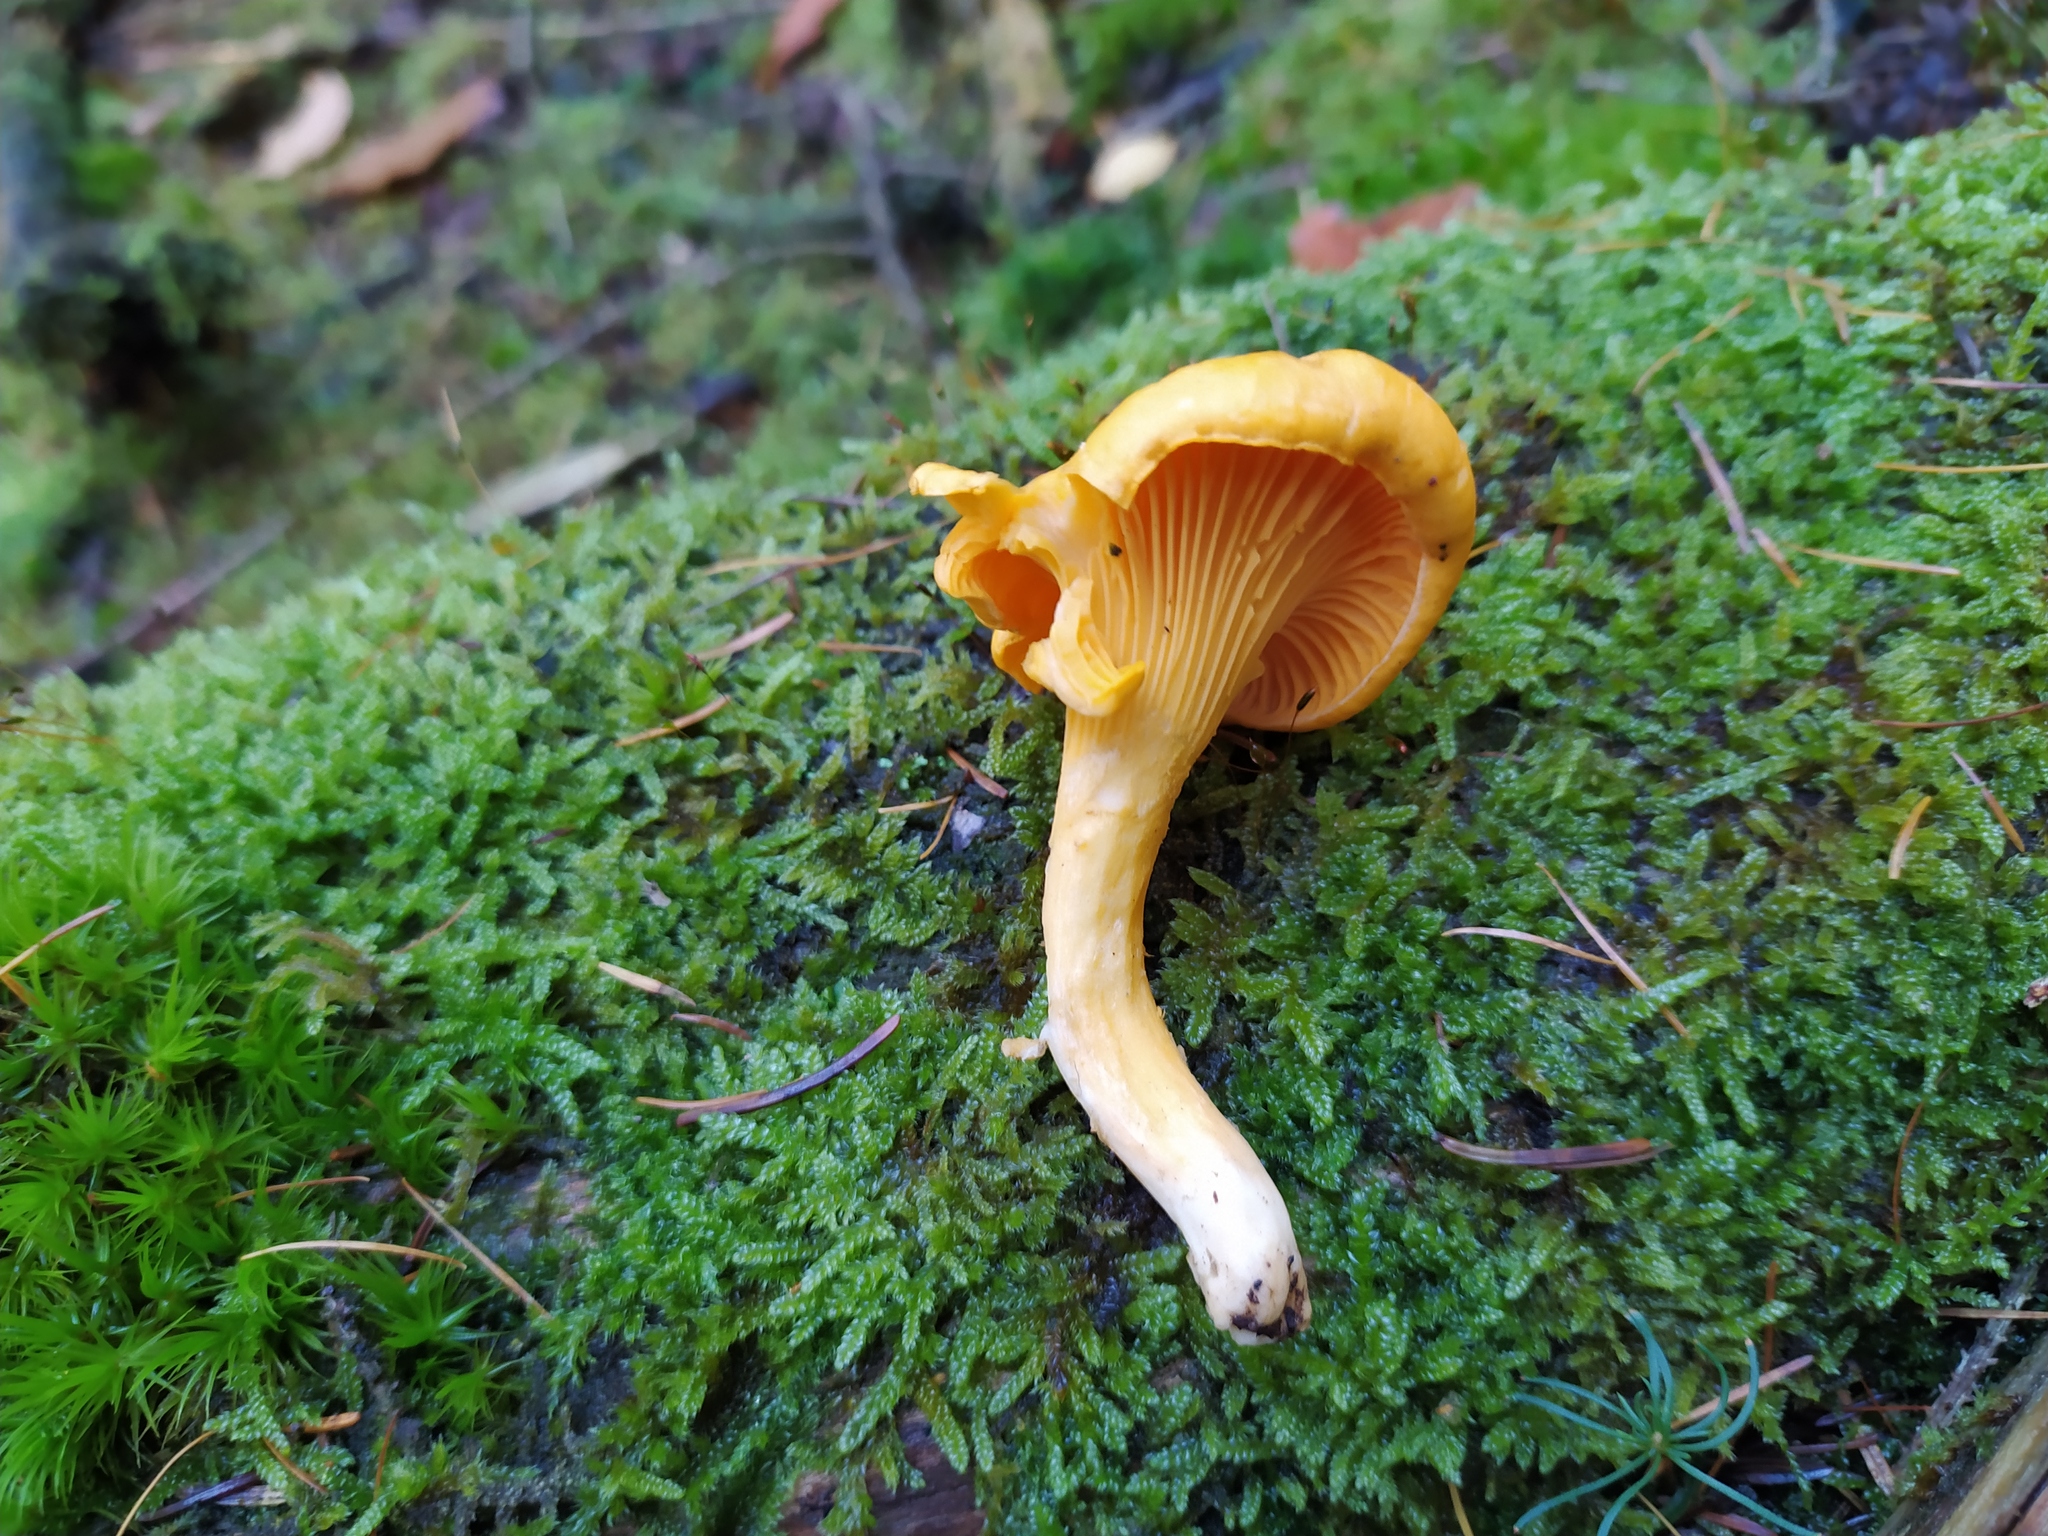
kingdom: Fungi
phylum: Basidiomycota
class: Agaricomycetes
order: Cantharellales
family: Hydnaceae
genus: Cantharellus
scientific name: Cantharellus cibarius
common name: Chanterelle
